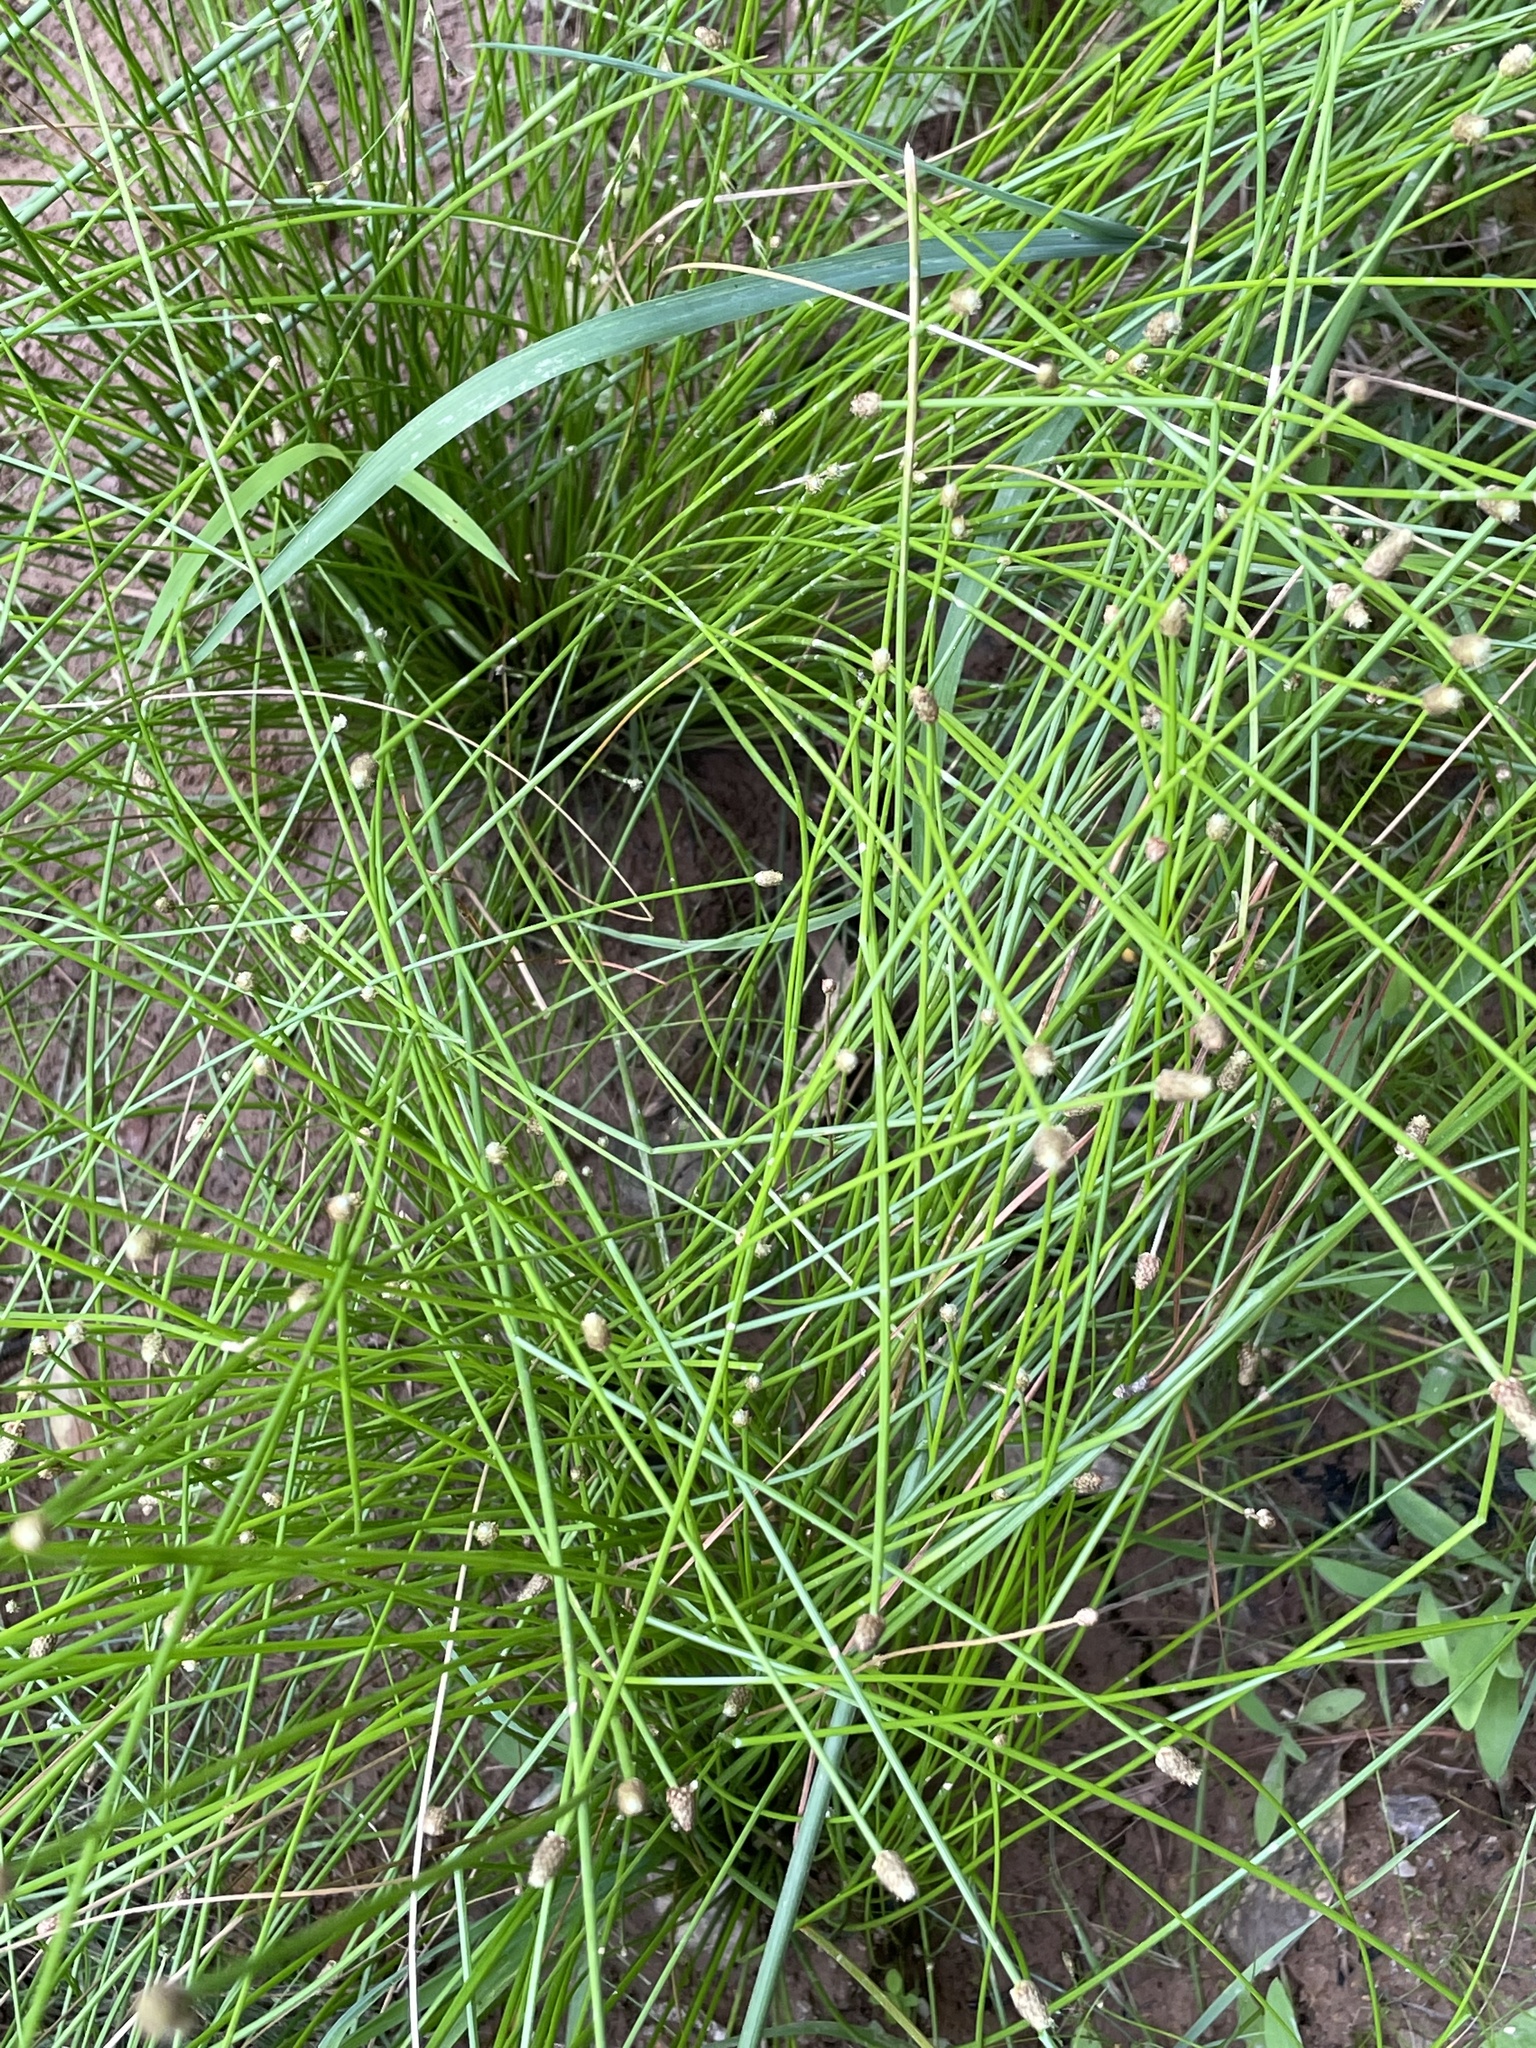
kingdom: Plantae
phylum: Tracheophyta
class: Liliopsida
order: Poales
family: Cyperaceae
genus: Eleocharis
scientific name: Eleocharis obtusa
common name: Blunt spikerush
